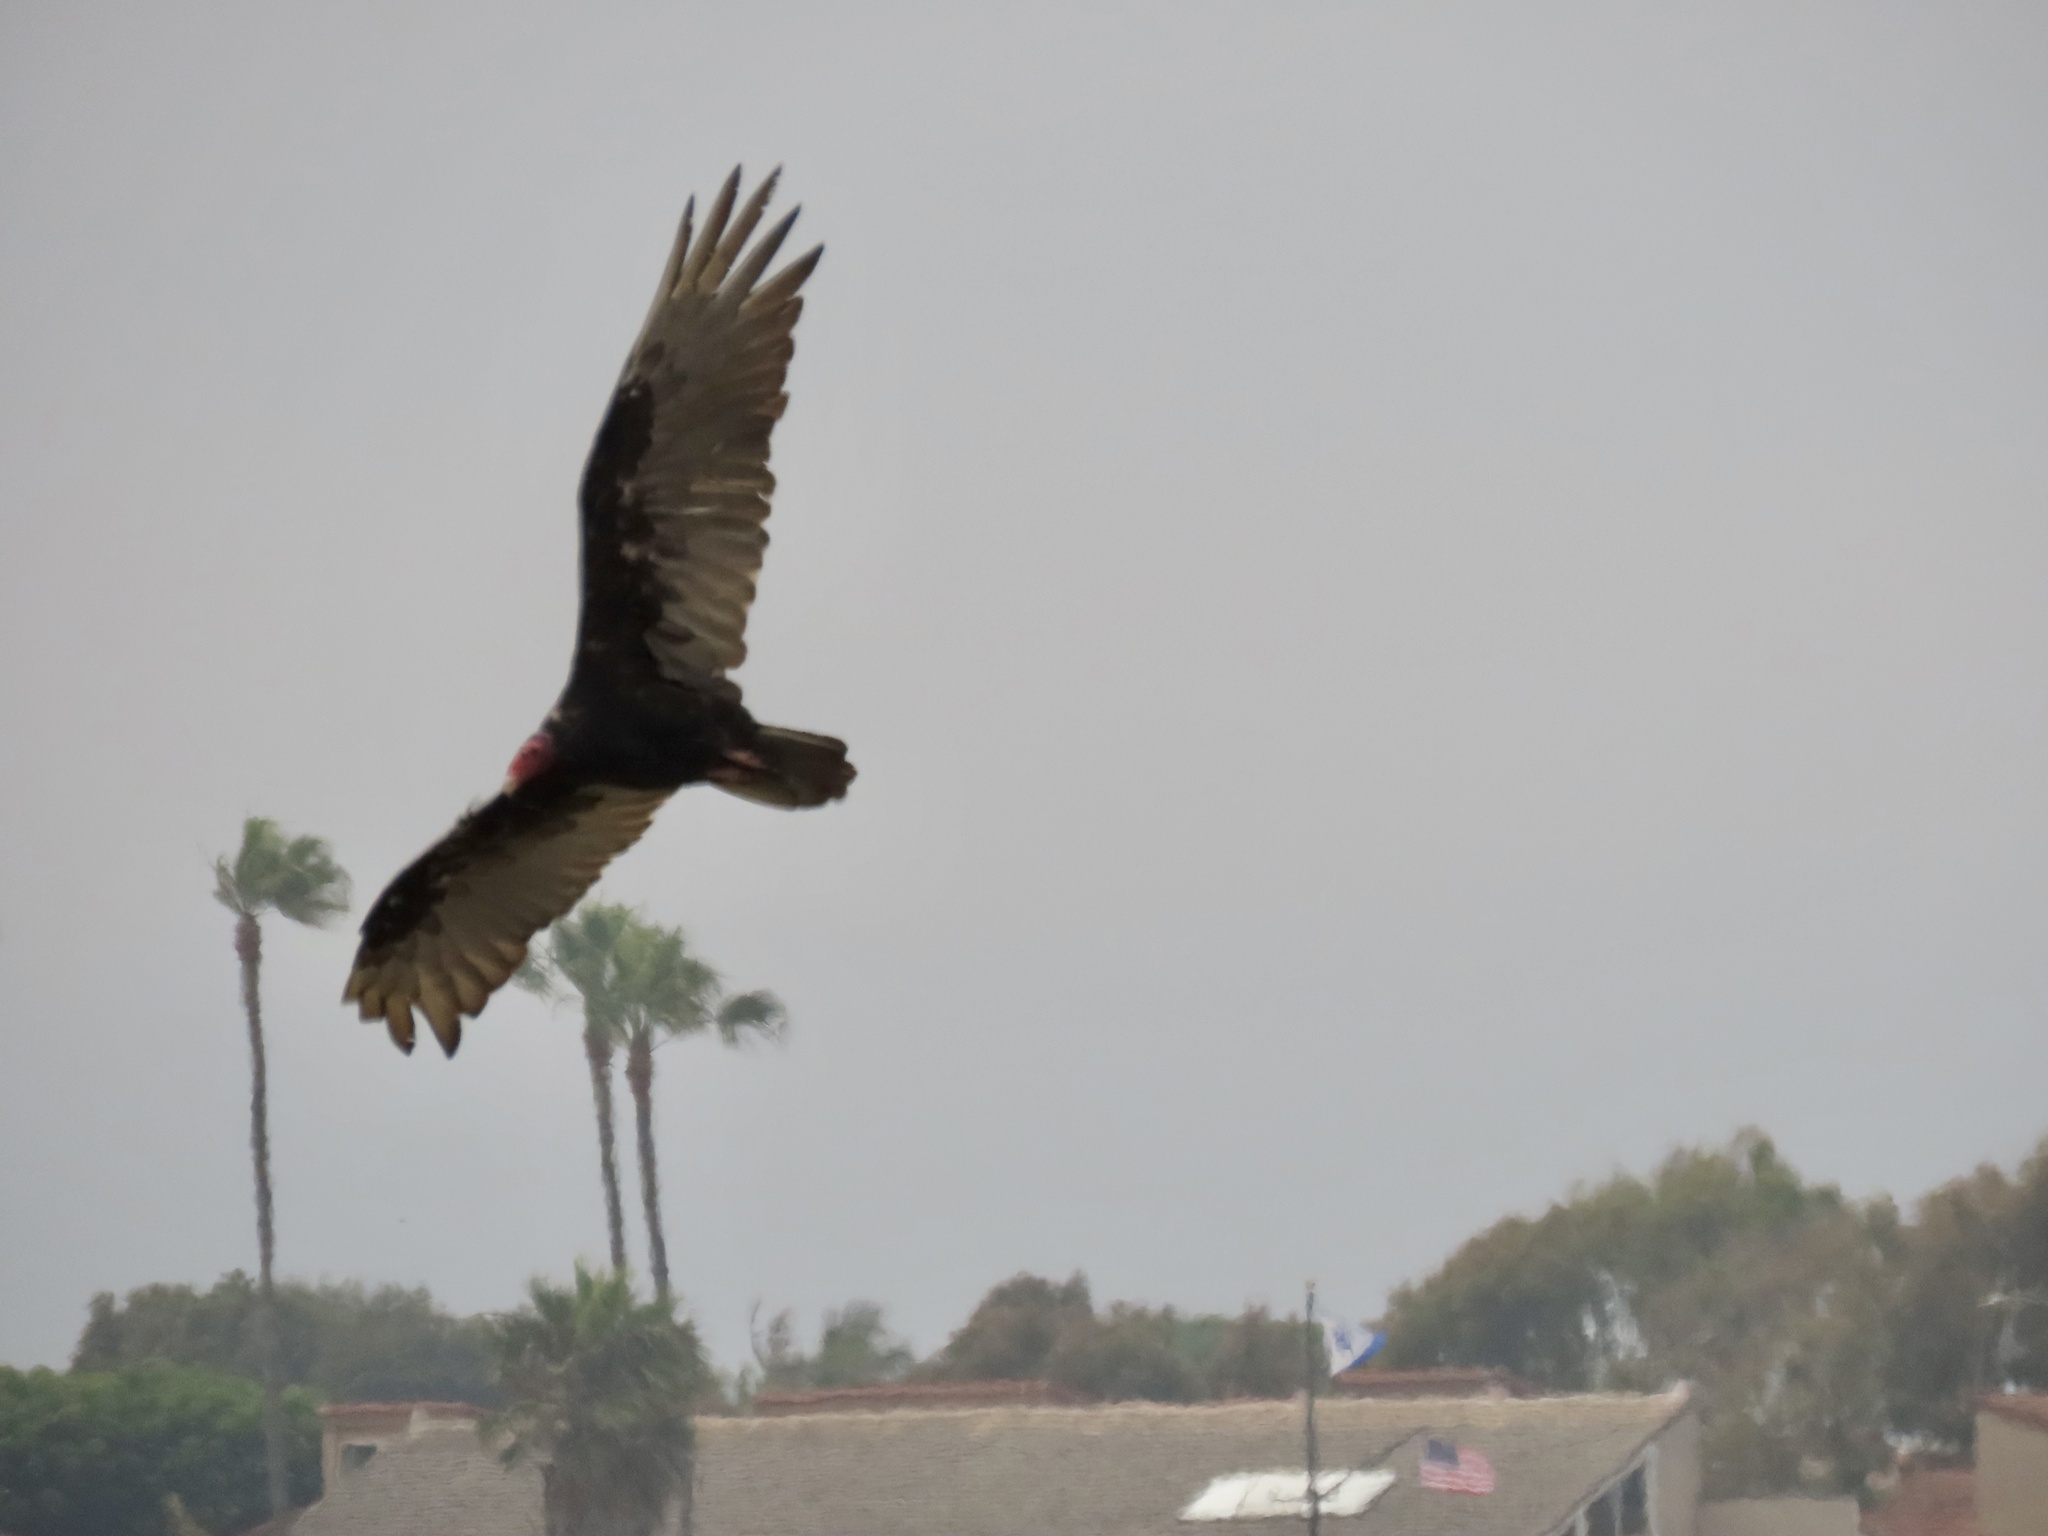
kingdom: Animalia
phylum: Chordata
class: Aves
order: Accipitriformes
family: Cathartidae
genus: Cathartes
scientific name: Cathartes aura
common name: Turkey vulture
